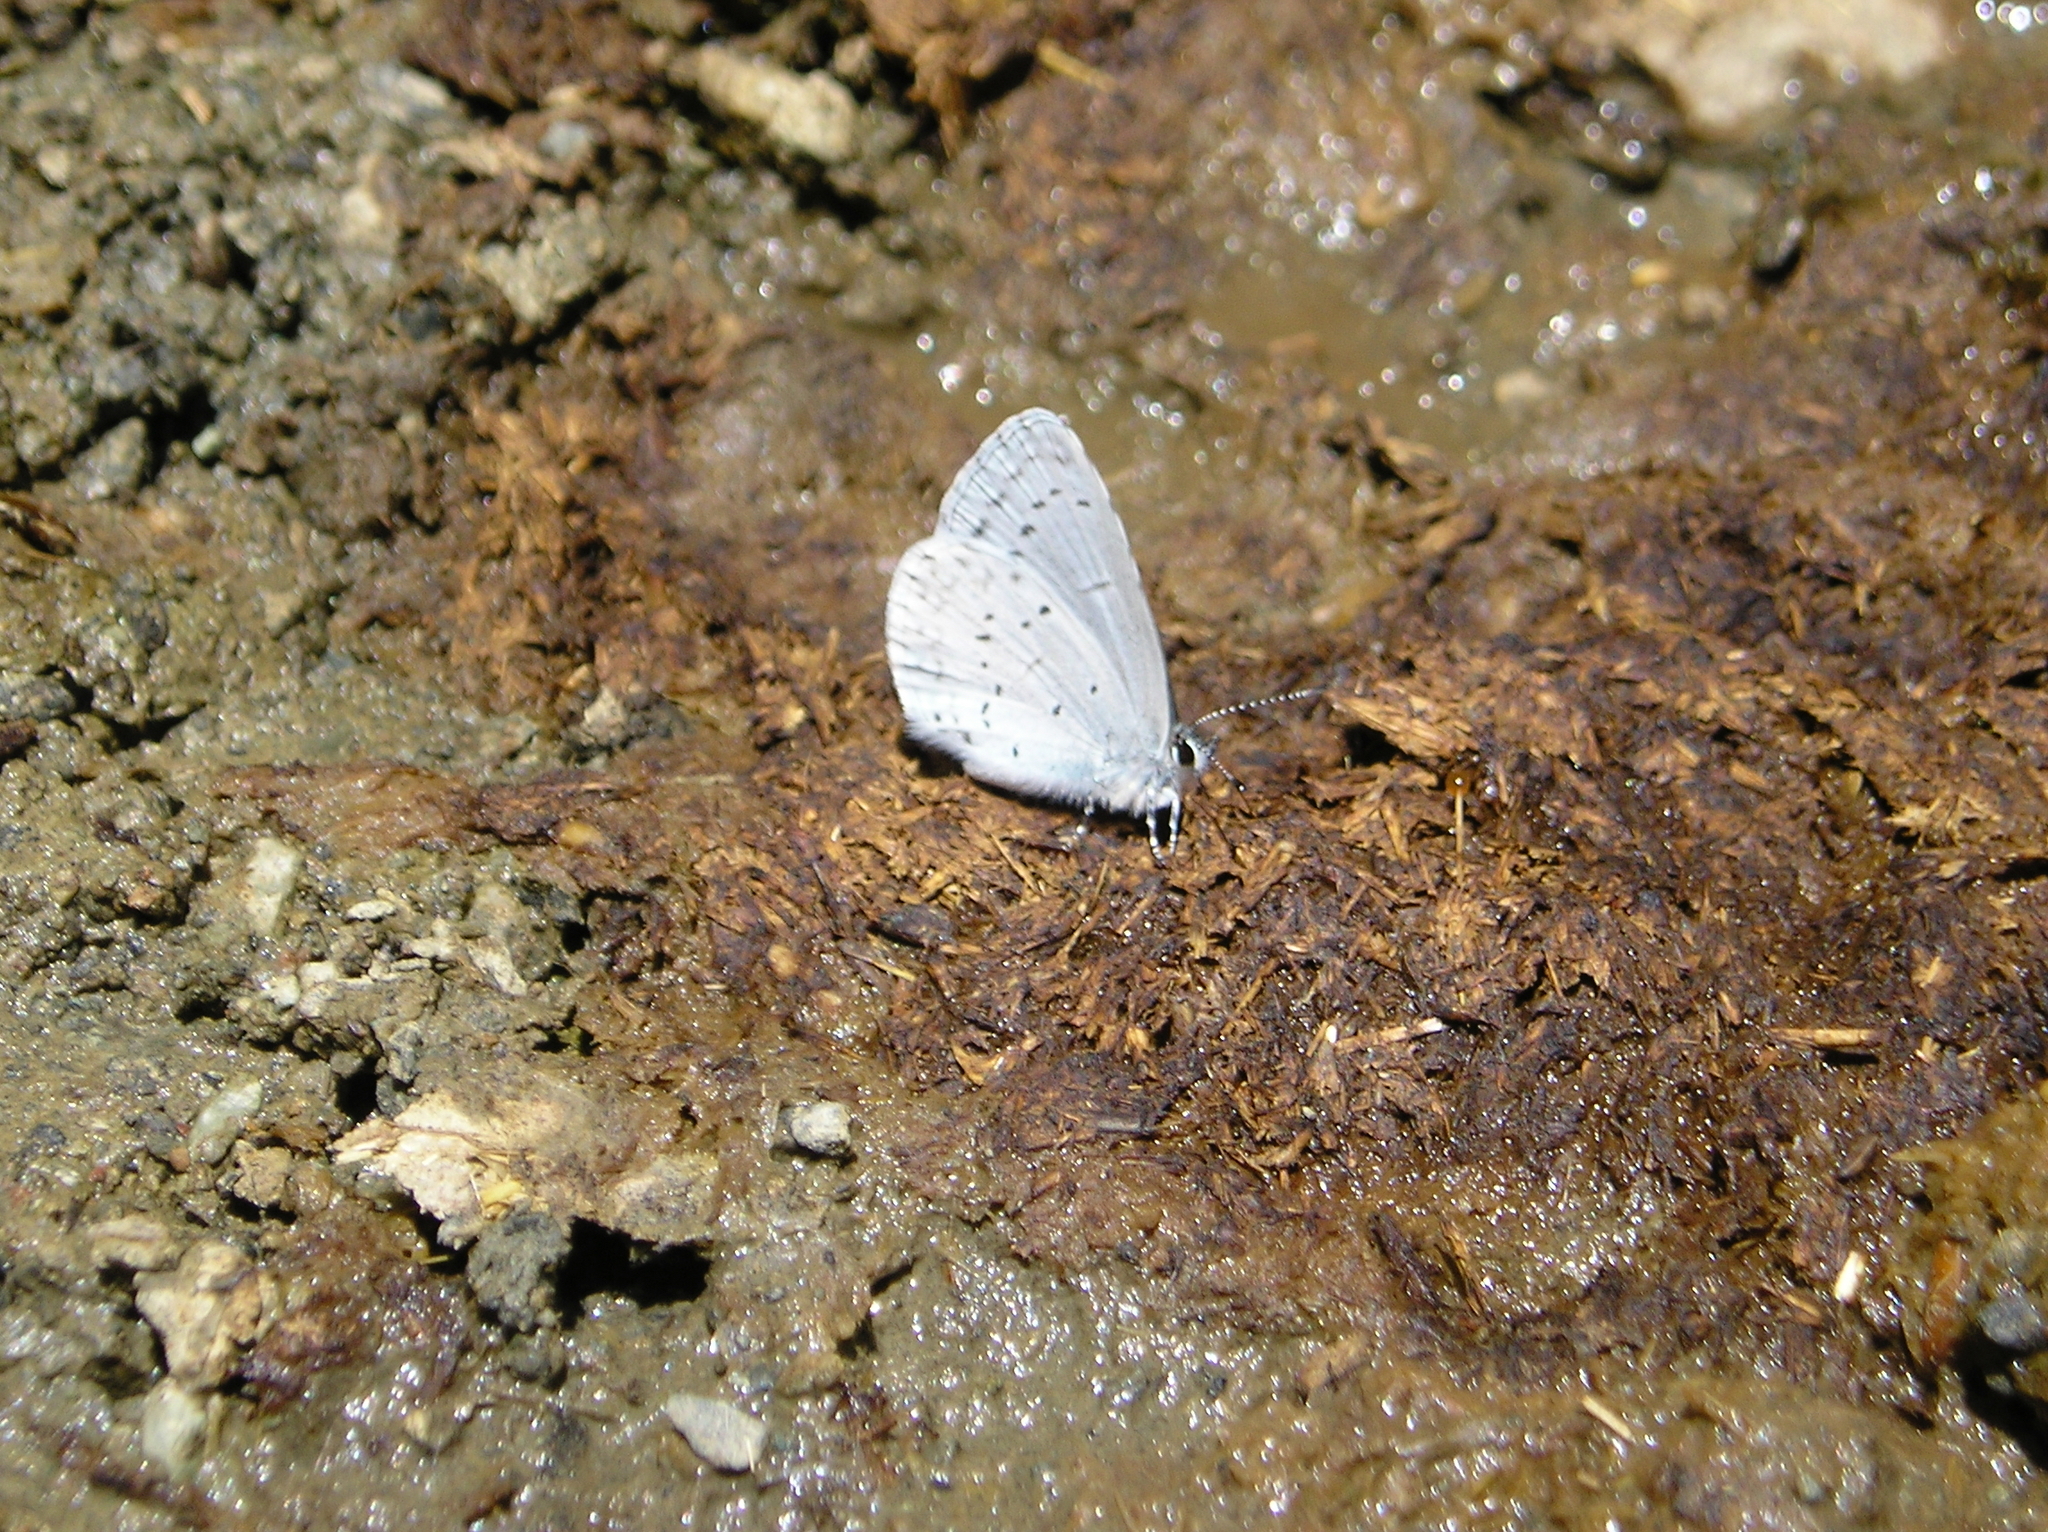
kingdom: Animalia
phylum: Arthropoda
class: Insecta
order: Lepidoptera
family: Lycaenidae
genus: Celastrina
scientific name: Celastrina ladon
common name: Spring azure
